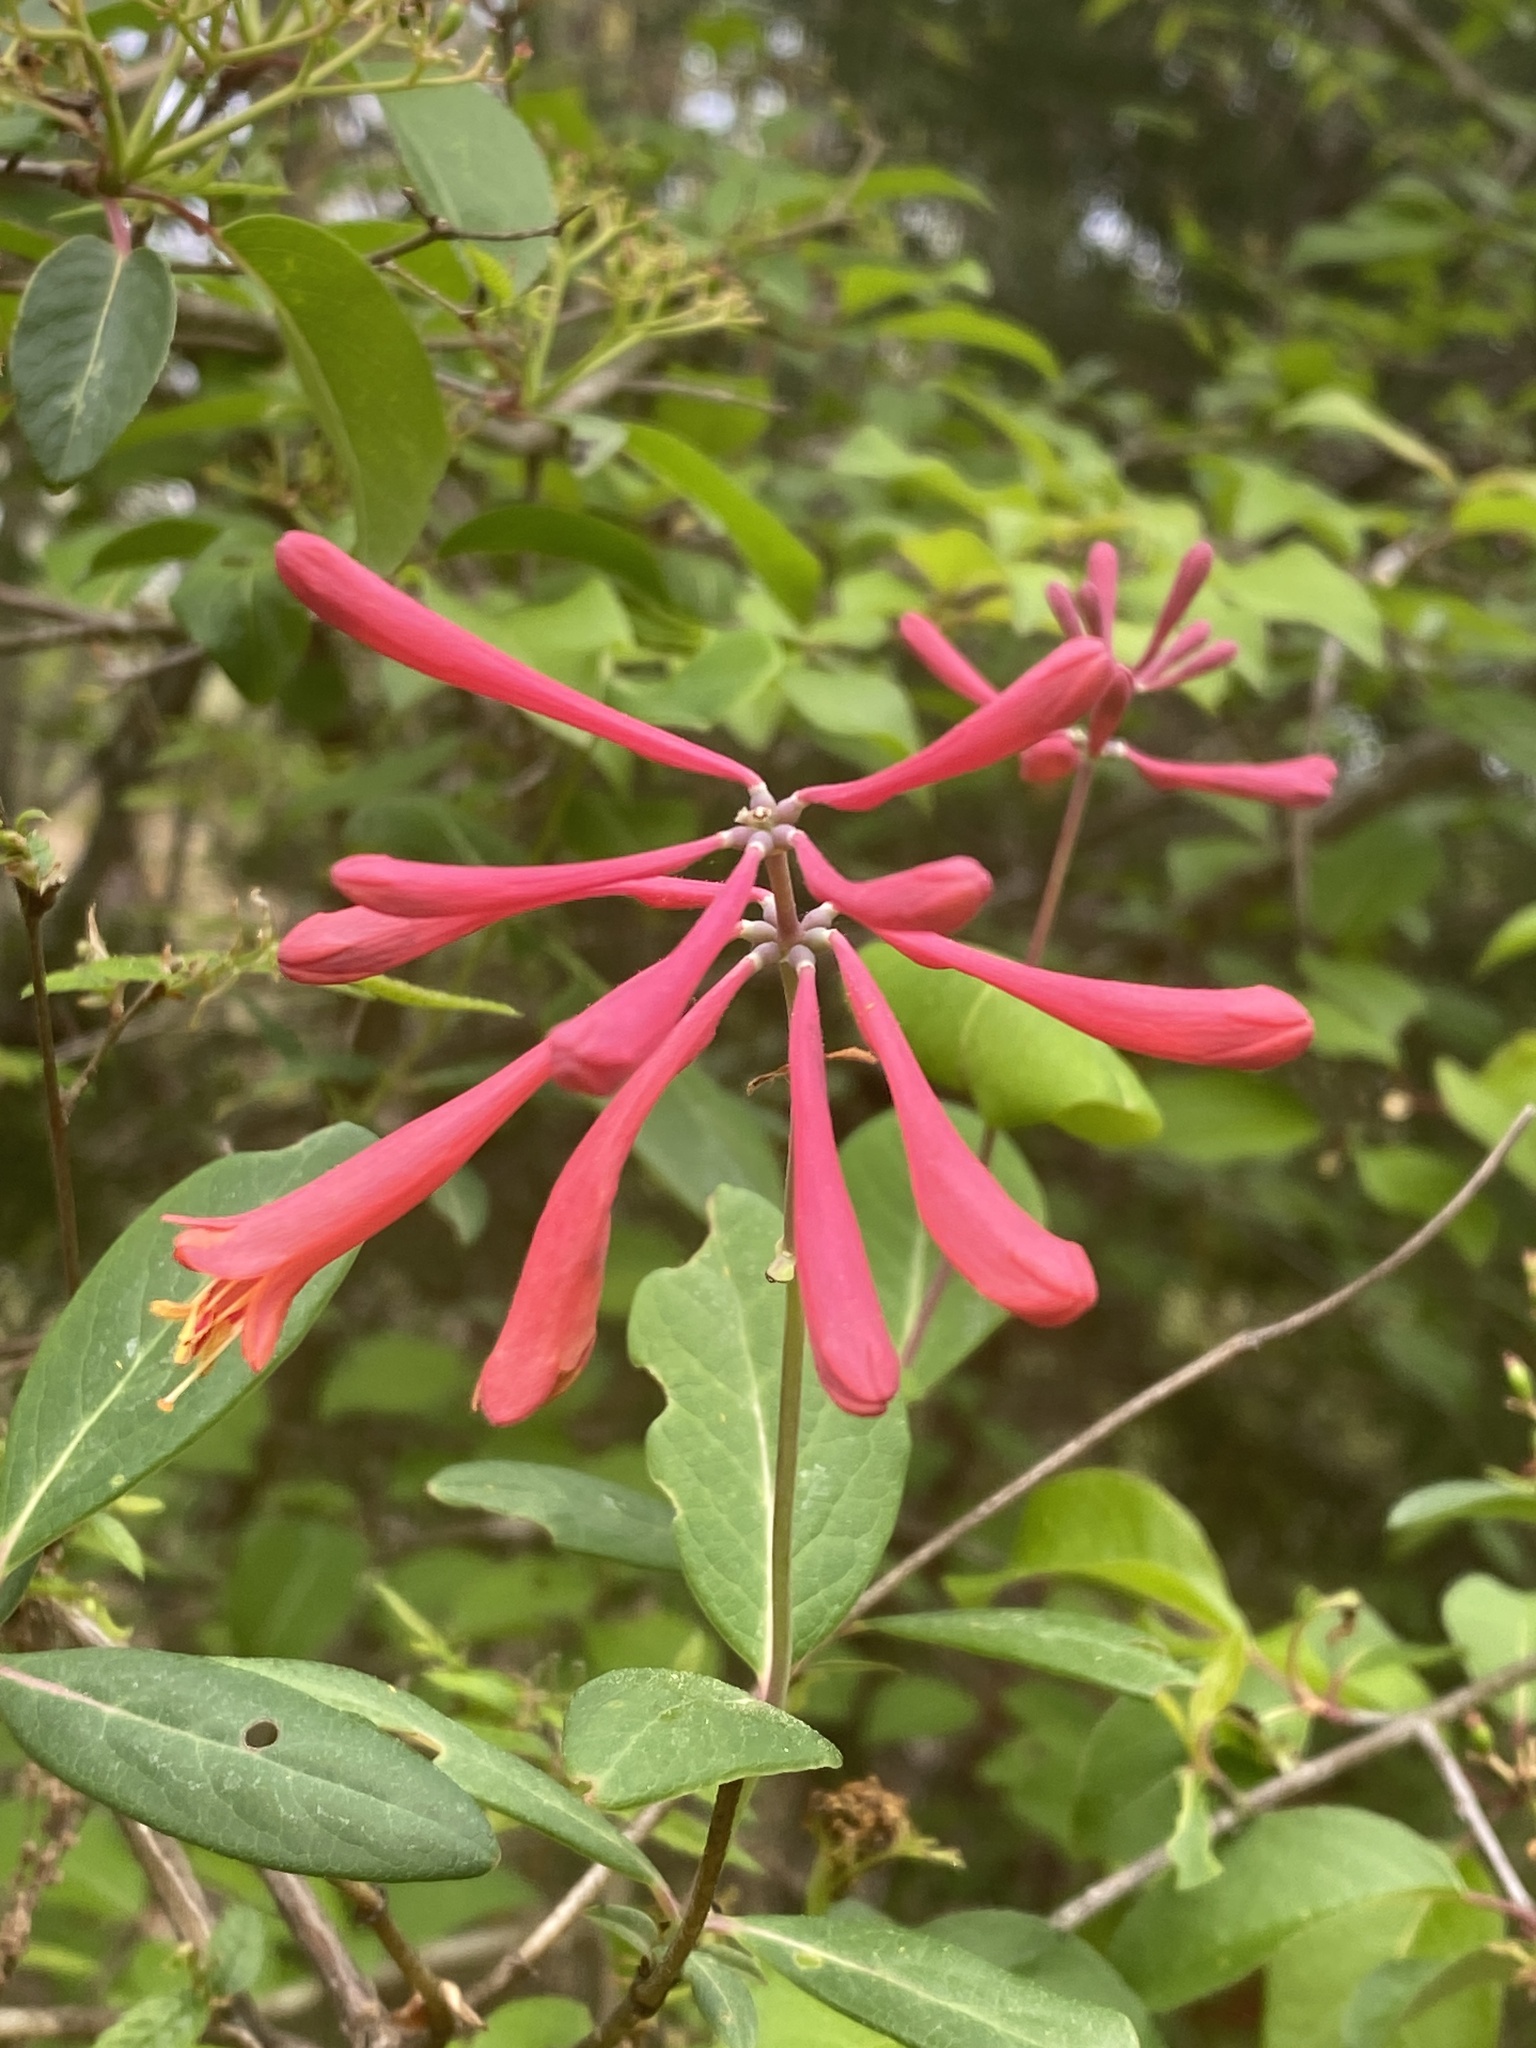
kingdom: Plantae
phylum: Tracheophyta
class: Magnoliopsida
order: Dipsacales
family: Caprifoliaceae
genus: Lonicera
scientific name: Lonicera sempervirens
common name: Coral honeysuckle
